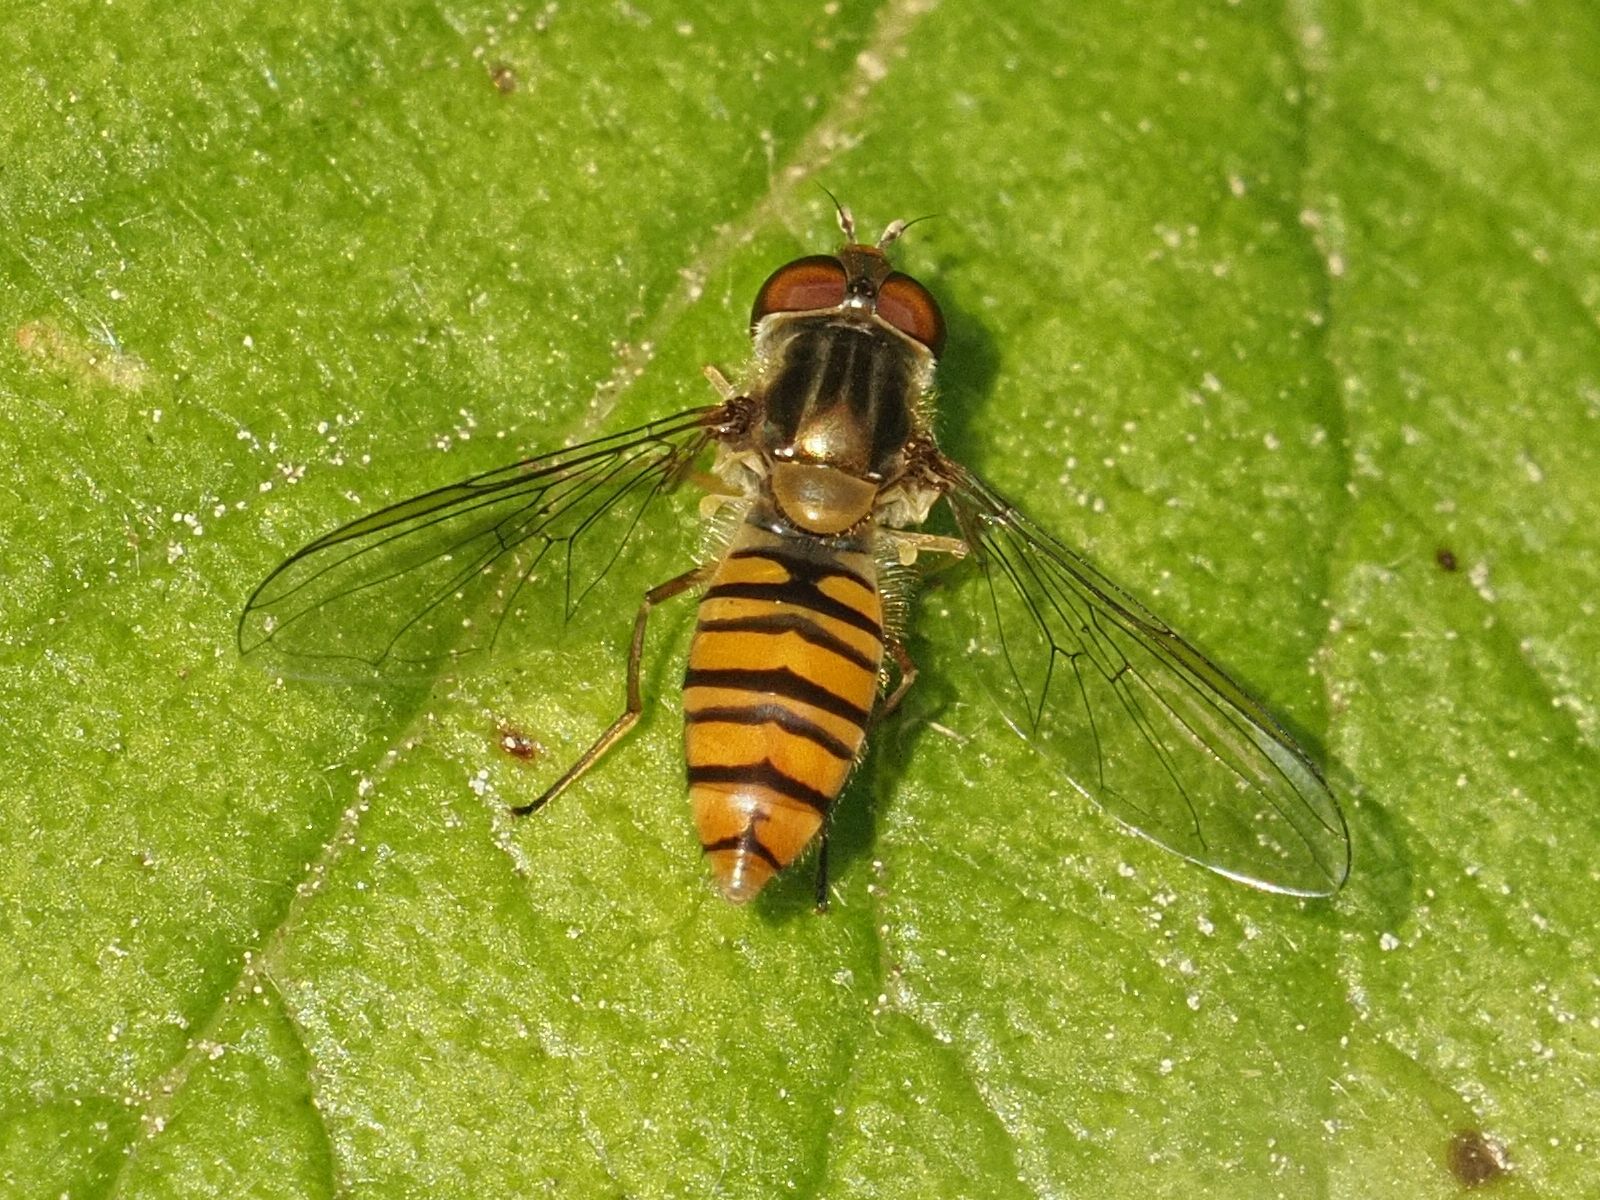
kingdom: Animalia
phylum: Arthropoda
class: Insecta
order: Diptera
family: Syrphidae
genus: Episyrphus
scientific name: Episyrphus balteatus
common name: Marmalade hoverfly
